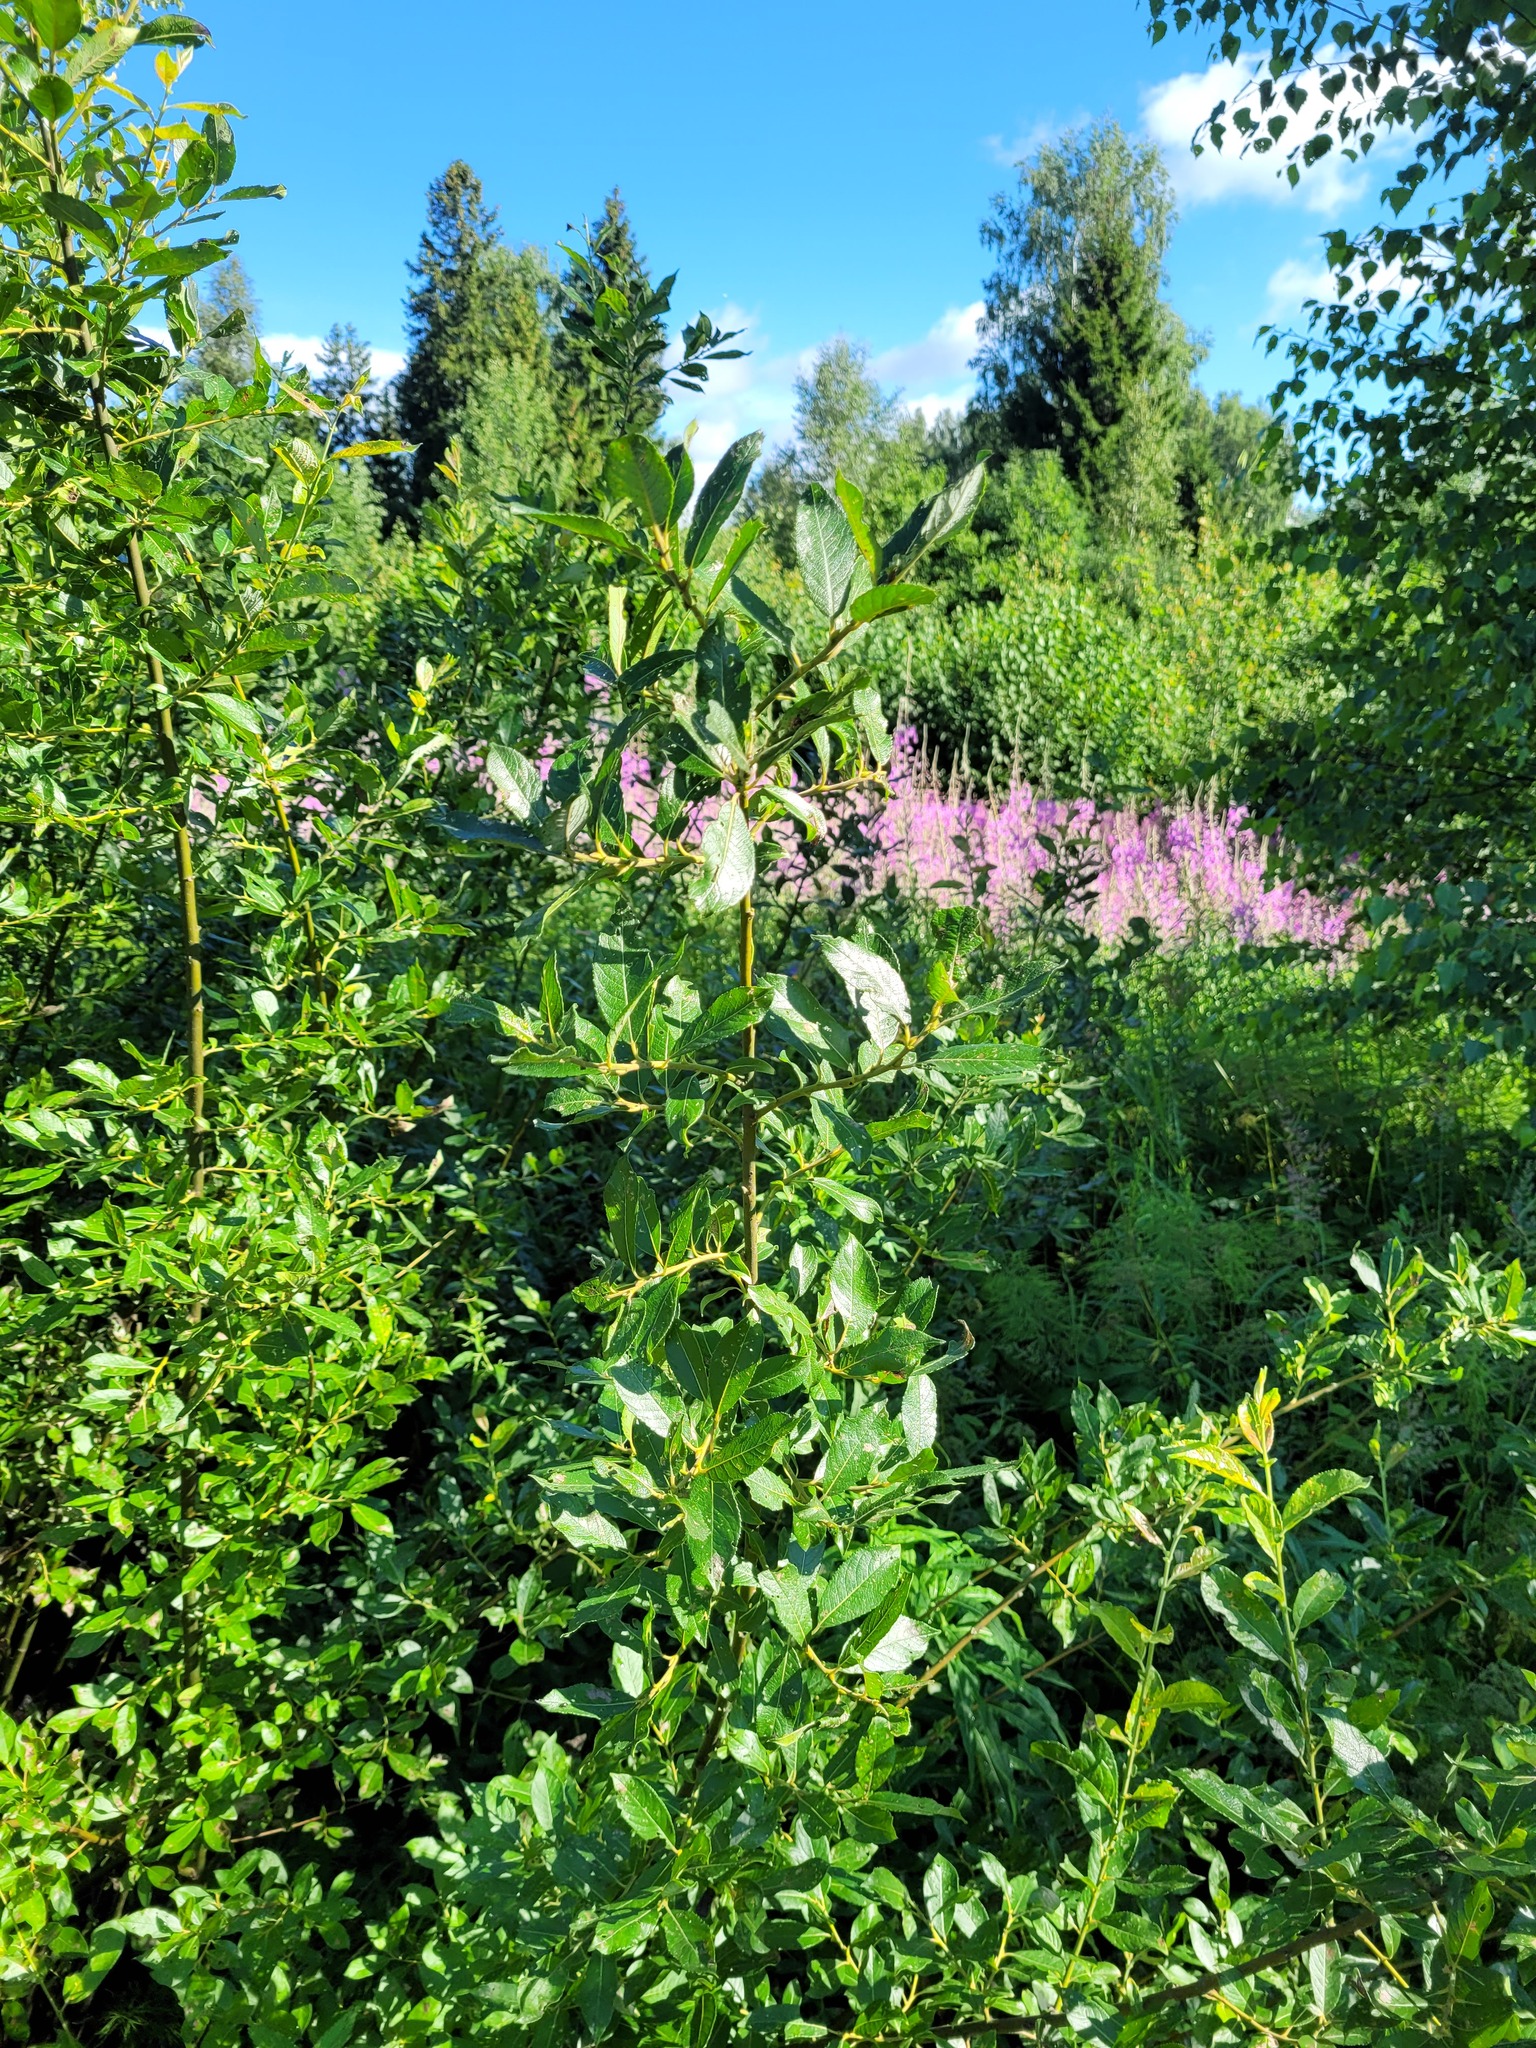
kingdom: Plantae
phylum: Tracheophyta
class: Magnoliopsida
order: Malpighiales
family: Salicaceae
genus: Salix
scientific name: Salix myrsinifolia
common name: Dark-leaved willow
